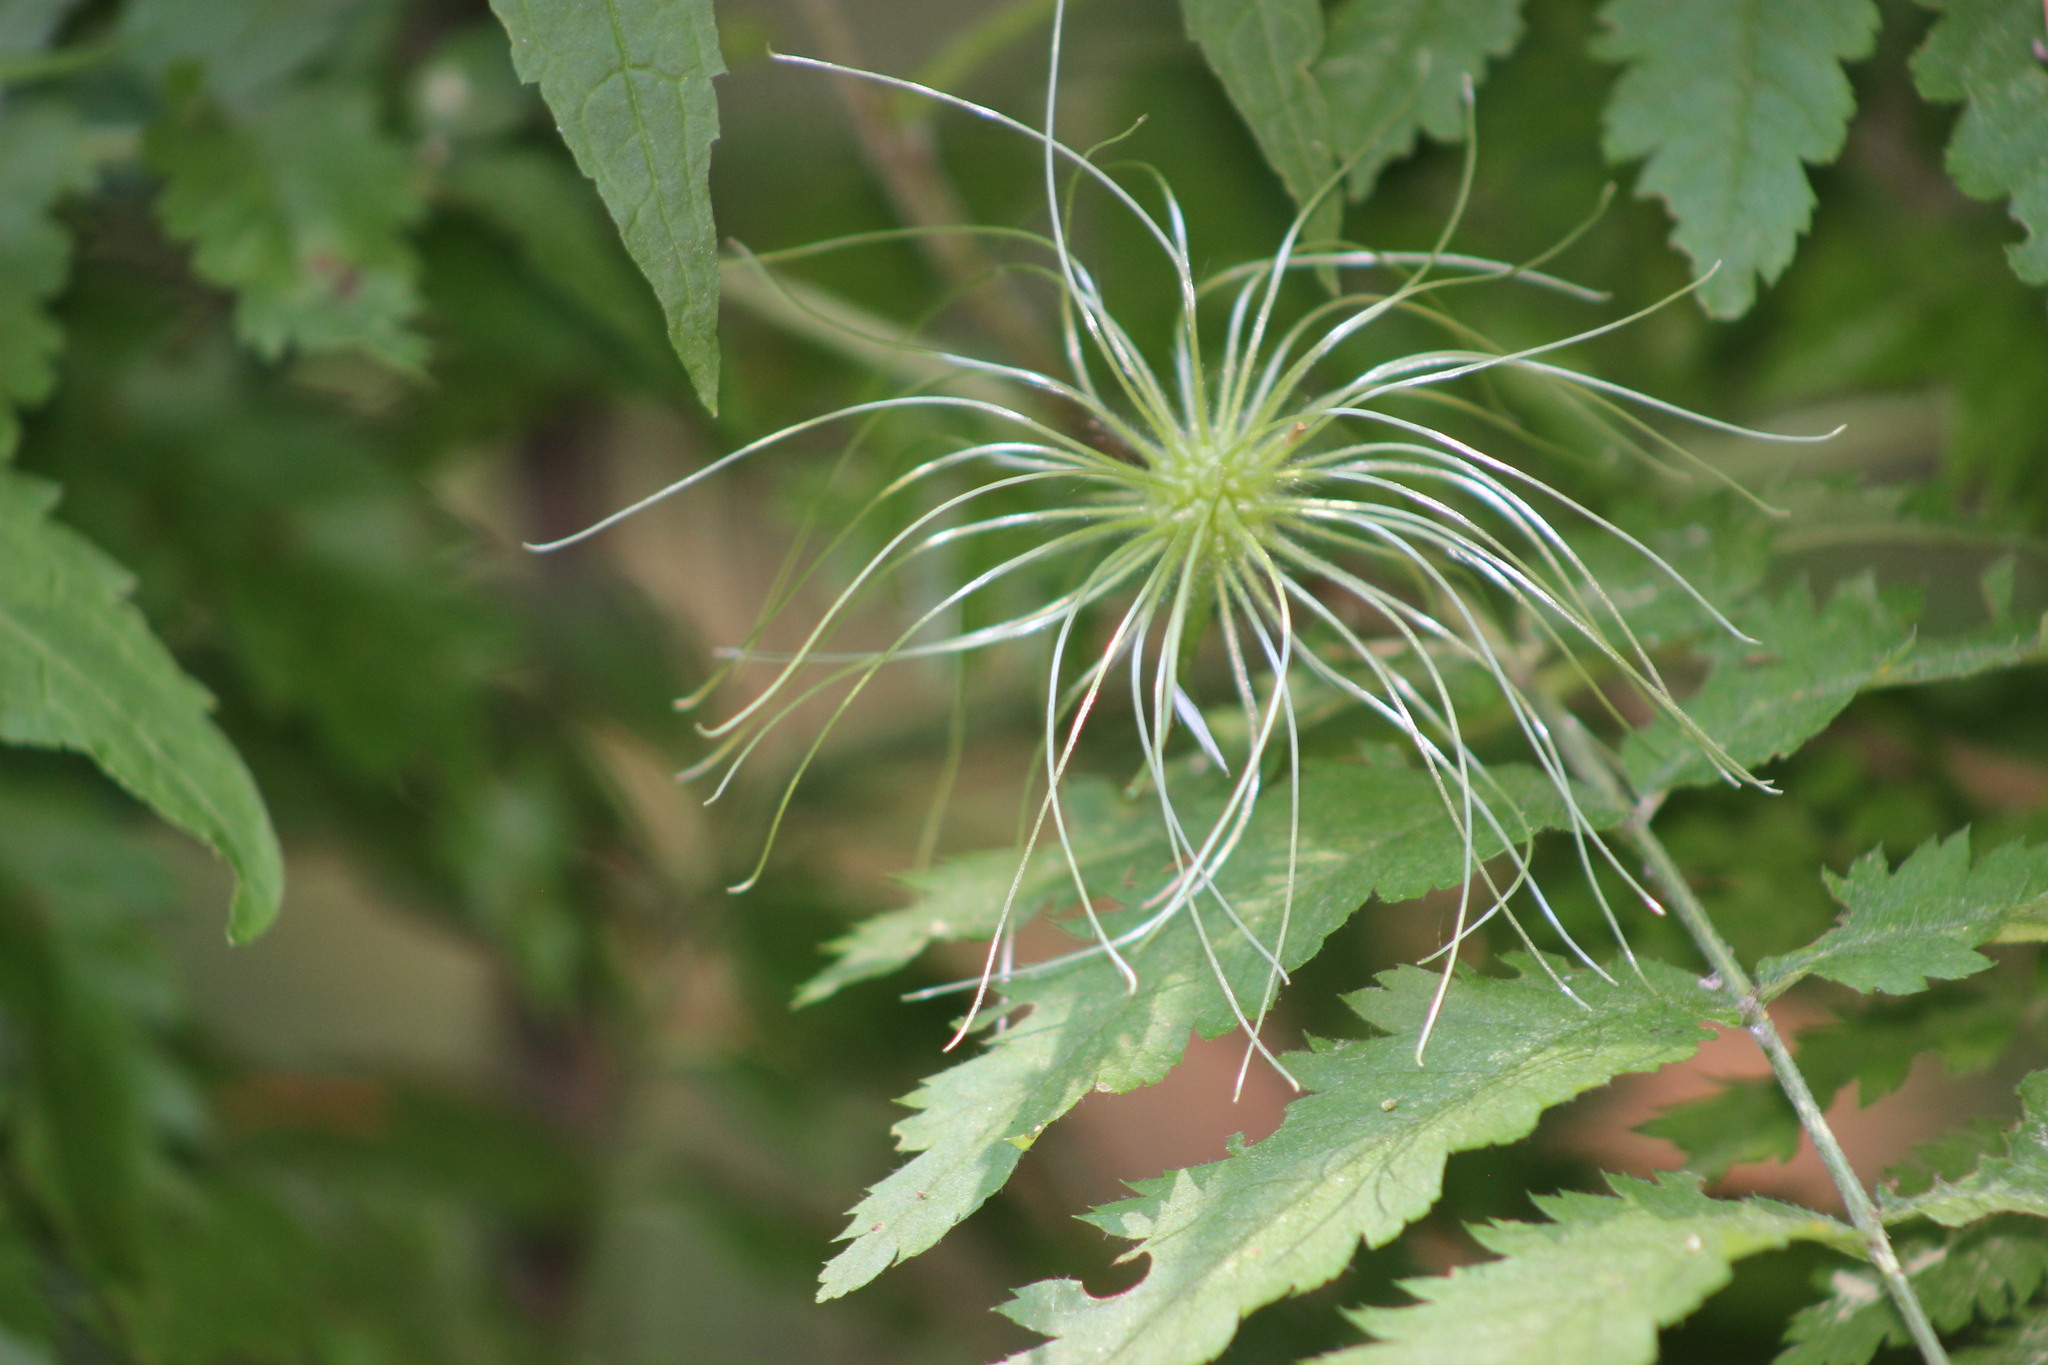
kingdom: Plantae
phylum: Tracheophyta
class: Magnoliopsida
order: Ranunculales
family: Ranunculaceae
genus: Clematis
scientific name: Clematis sibirica
